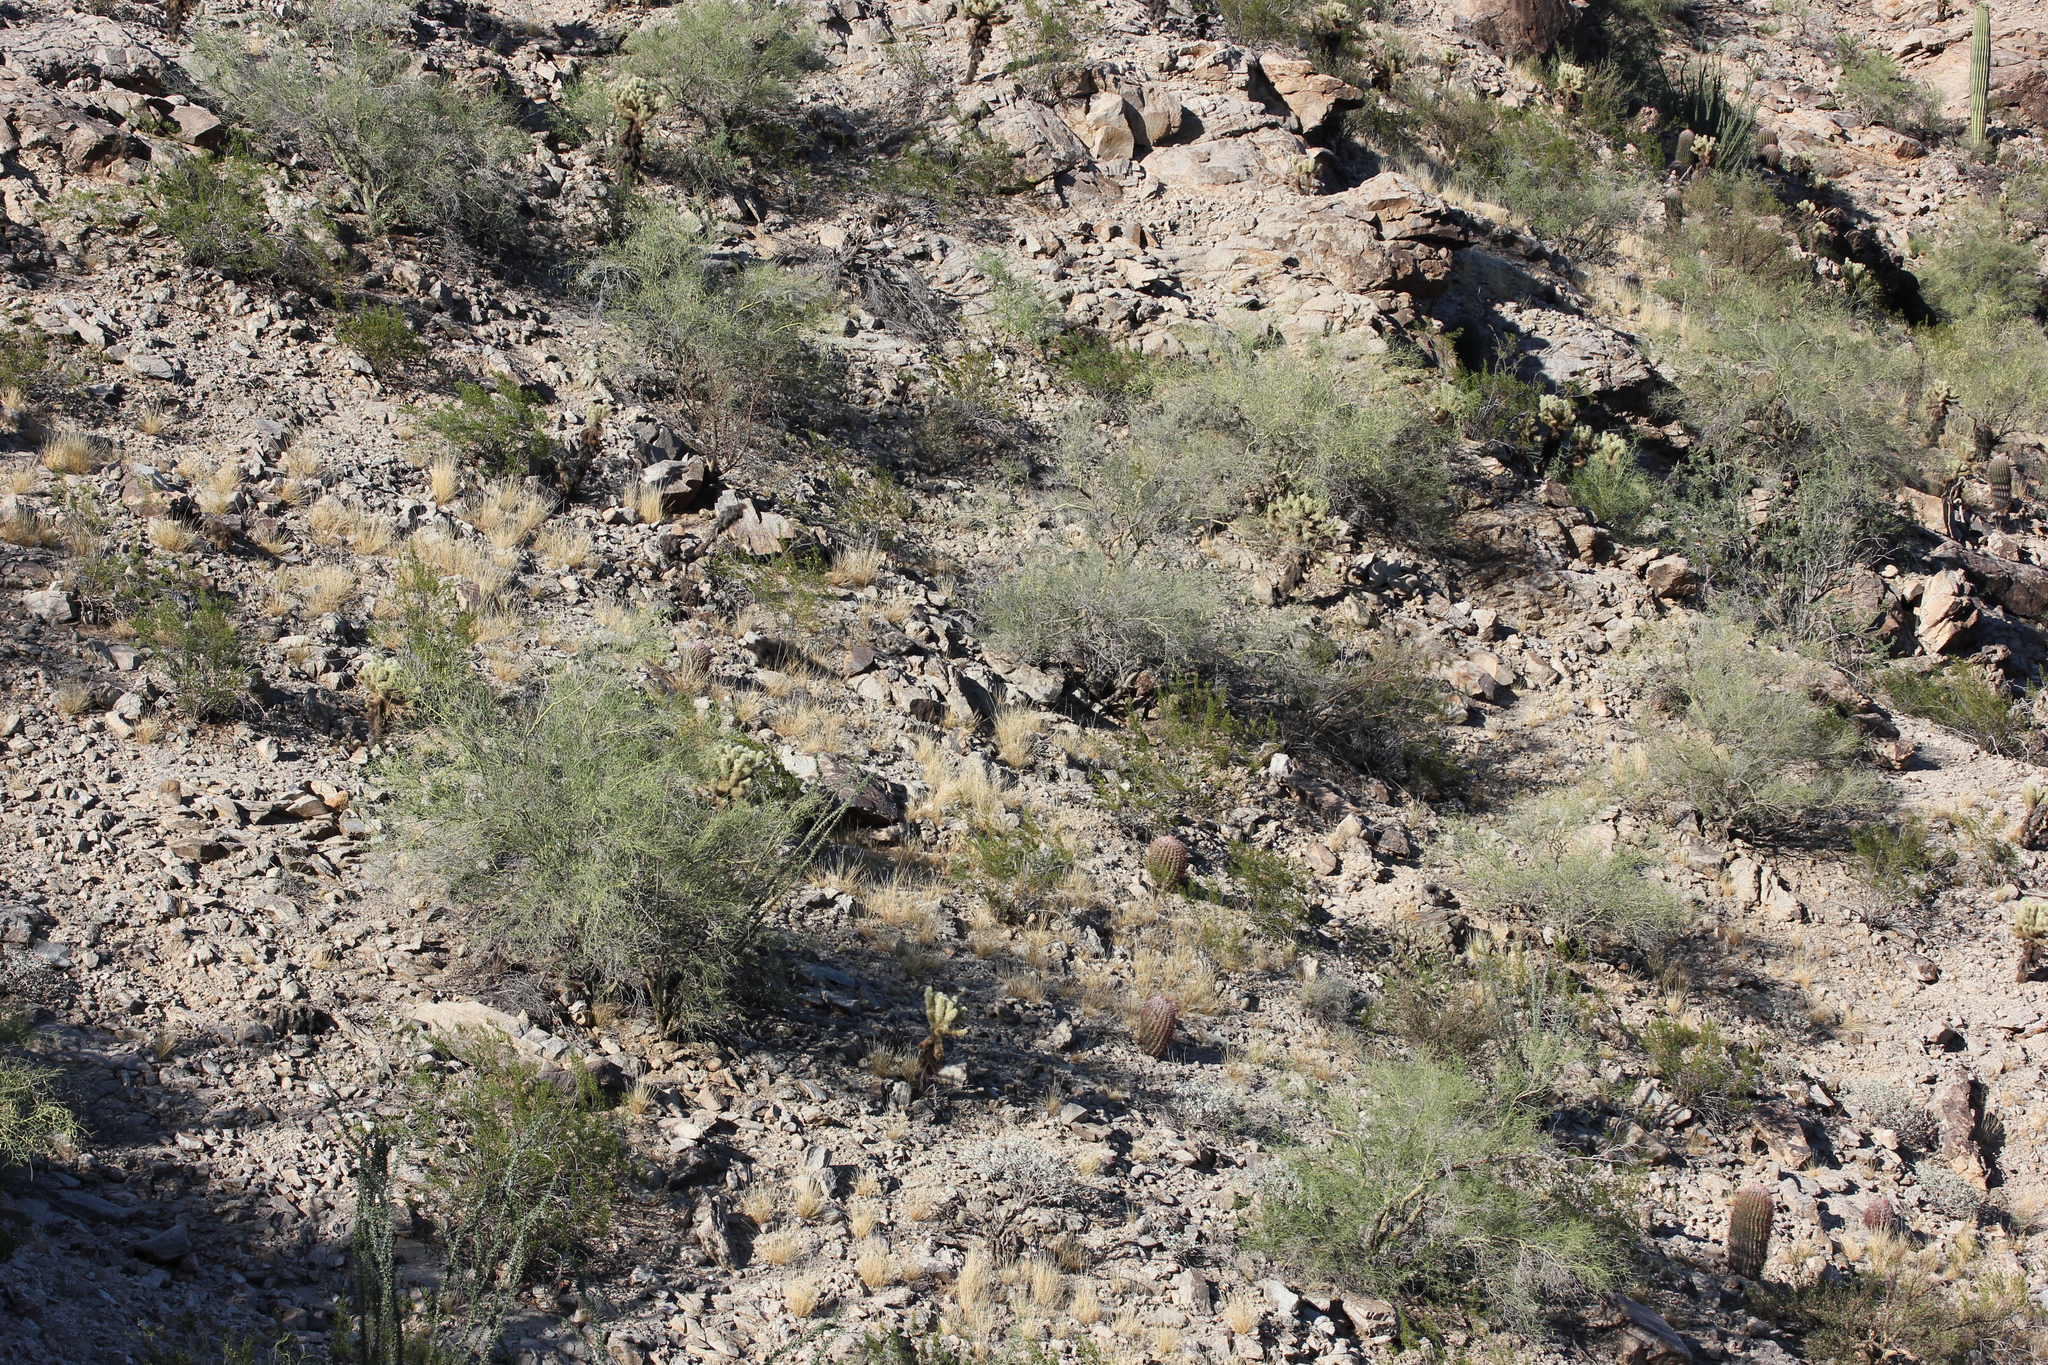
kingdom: Plantae
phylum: Tracheophyta
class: Magnoliopsida
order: Ericales
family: Fouquieriaceae
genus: Fouquieria
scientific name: Fouquieria splendens
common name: Vine-cactus
